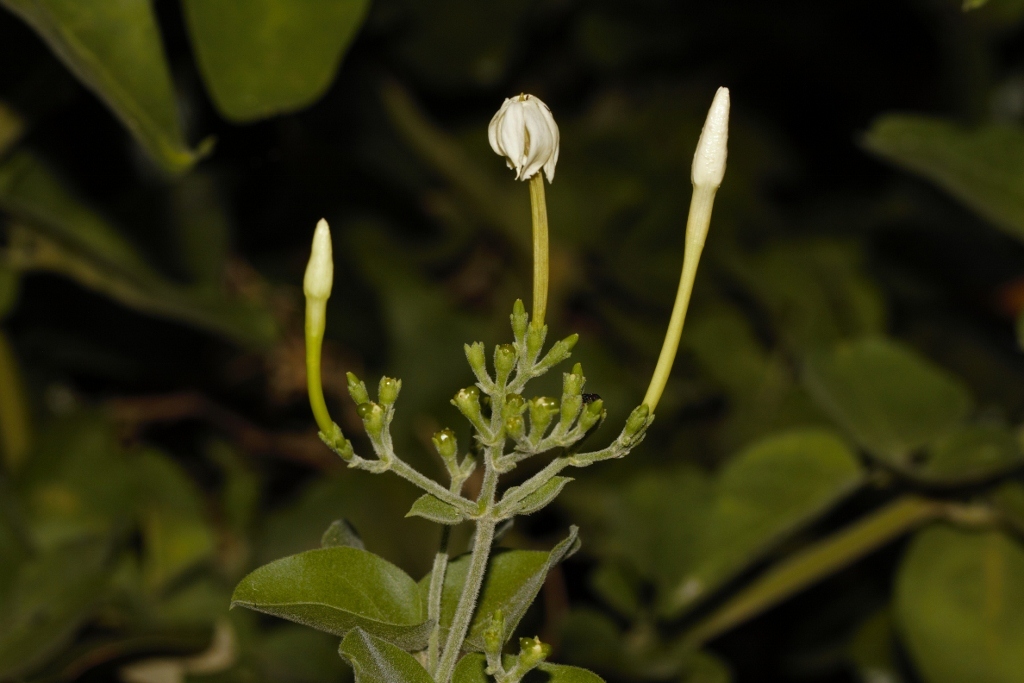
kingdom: Plantae
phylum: Tracheophyta
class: Magnoliopsida
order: Lamiales
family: Oleaceae
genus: Jasminum
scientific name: Jasminum fluminense
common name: Brazilian jasmine
